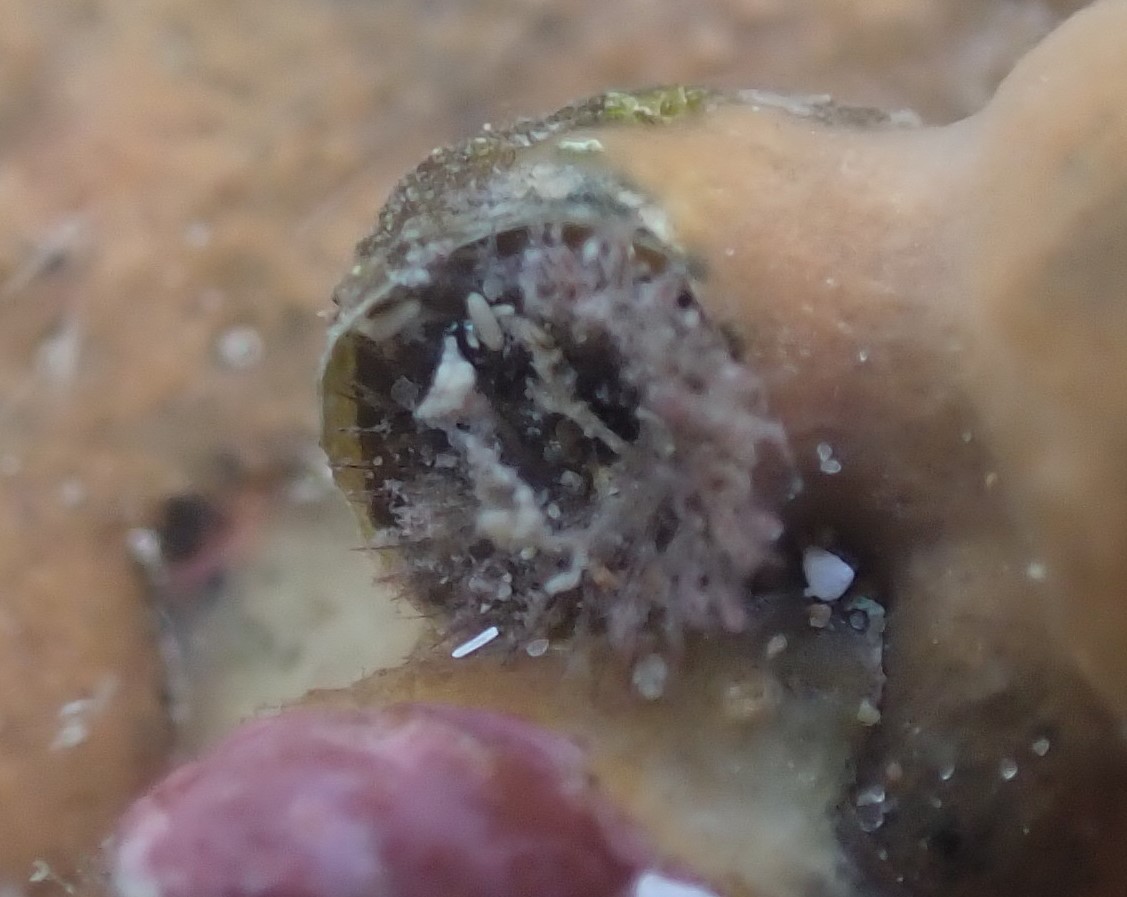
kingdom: Animalia
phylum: Mollusca
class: Gastropoda
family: Siliquariidae
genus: Stephopoma
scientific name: Stephopoma roseum
